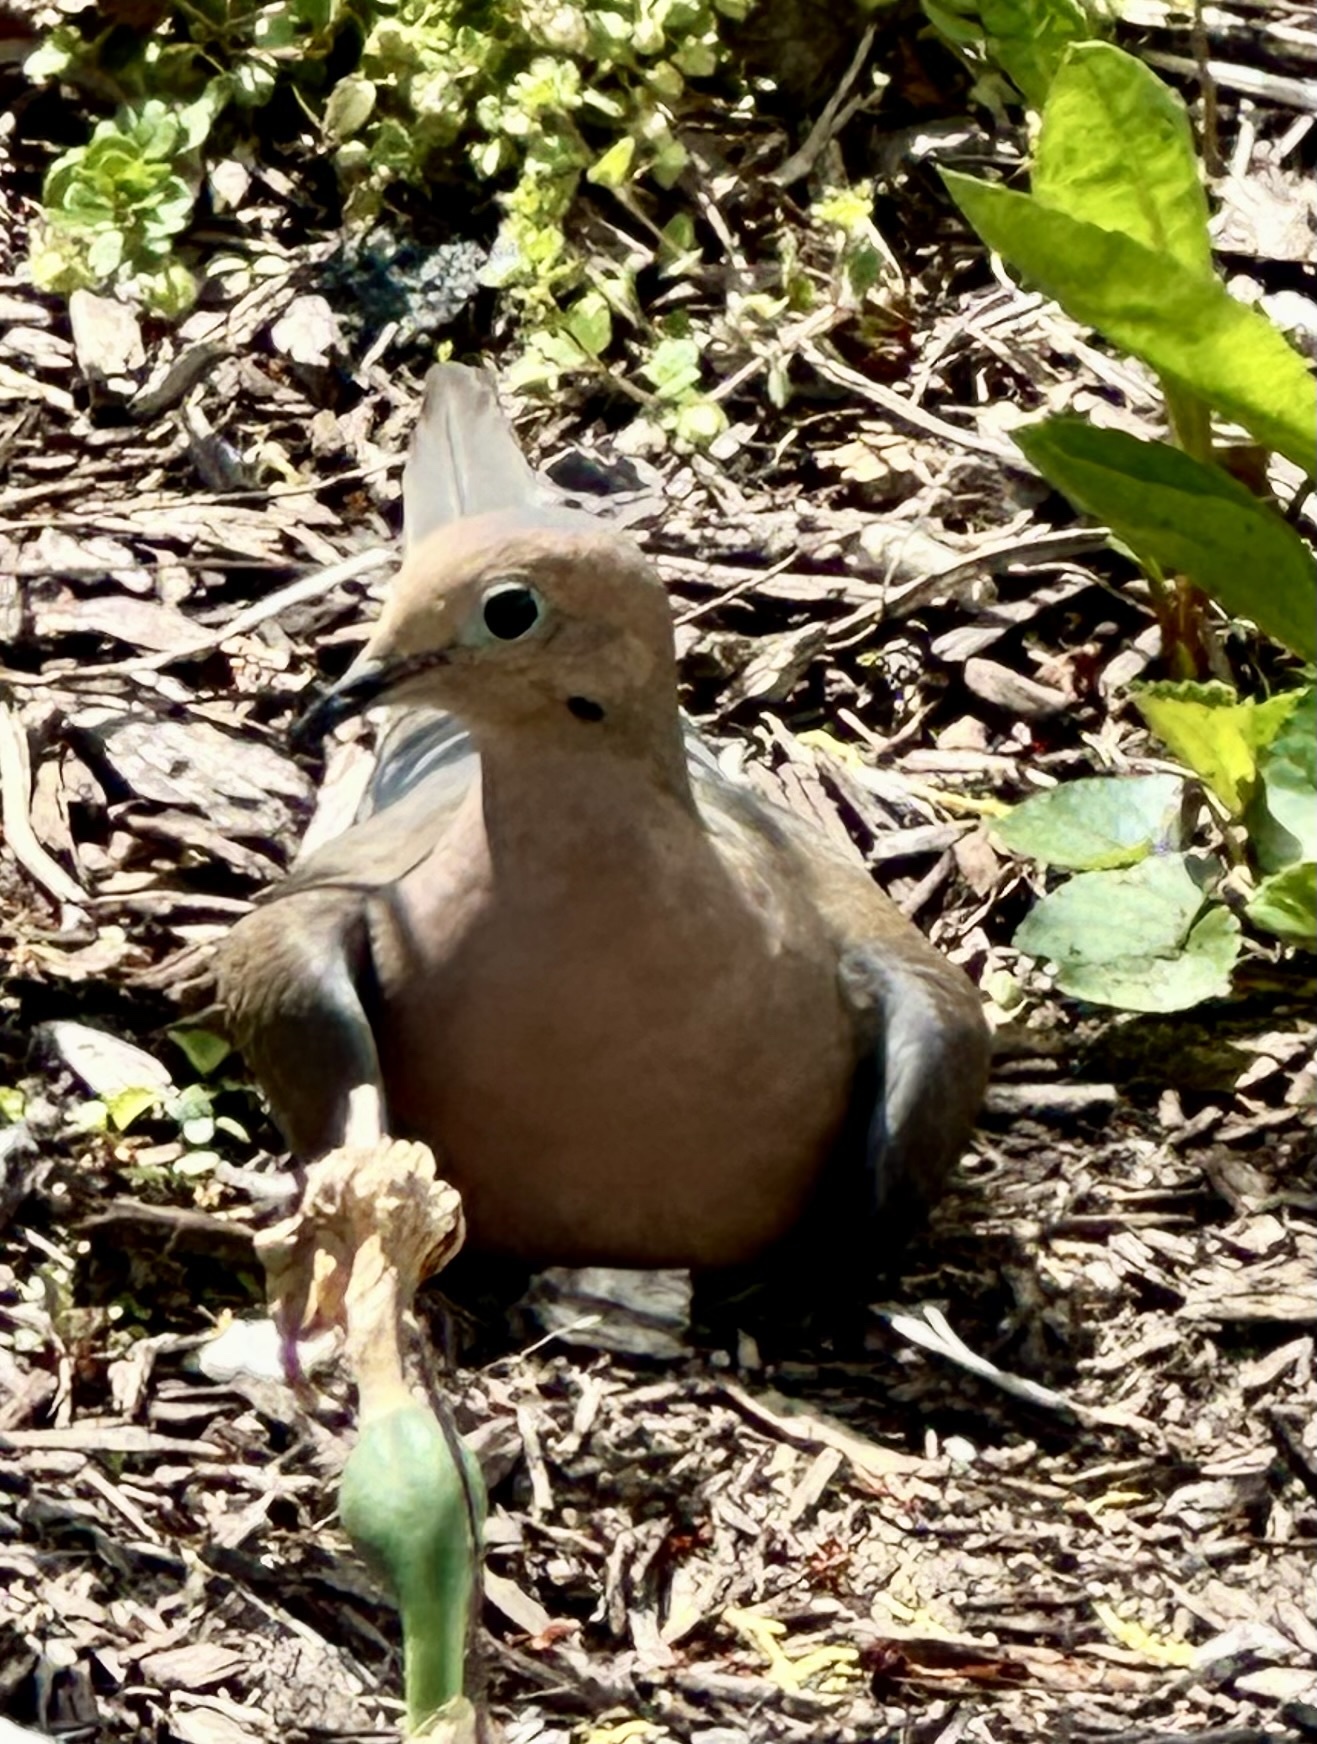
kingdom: Animalia
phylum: Chordata
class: Aves
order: Columbiformes
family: Columbidae
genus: Zenaida
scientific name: Zenaida macroura
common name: Mourning dove
